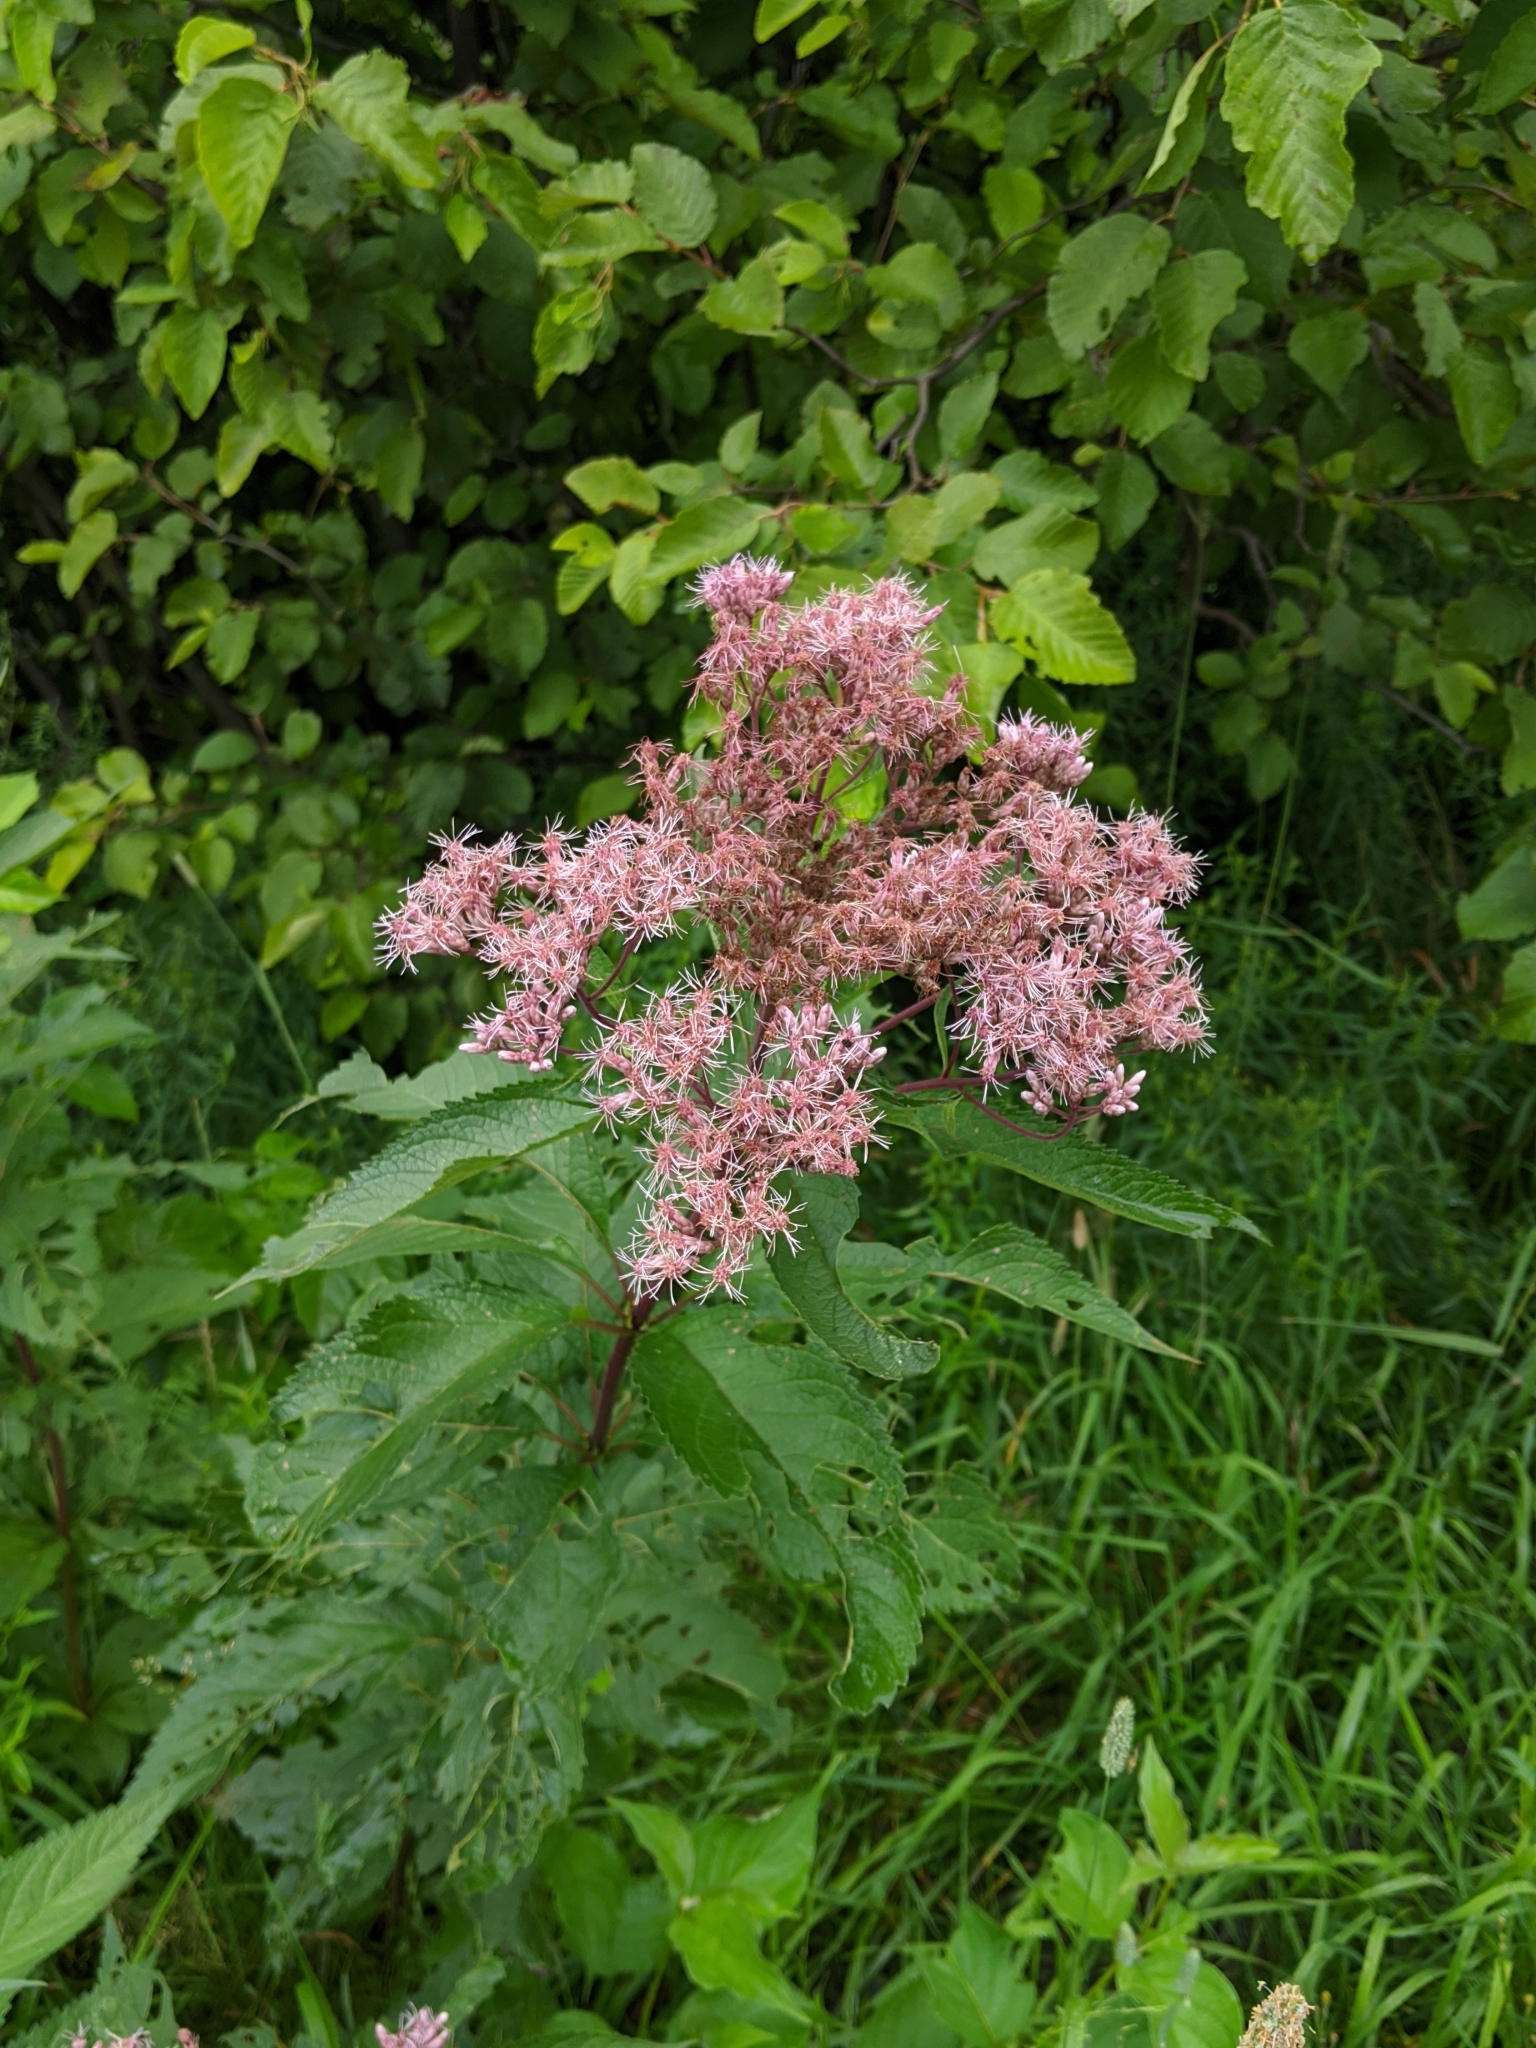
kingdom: Plantae
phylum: Tracheophyta
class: Magnoliopsida
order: Asterales
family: Asteraceae
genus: Eutrochium
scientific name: Eutrochium maculatum
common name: Spotted joe pye weed
